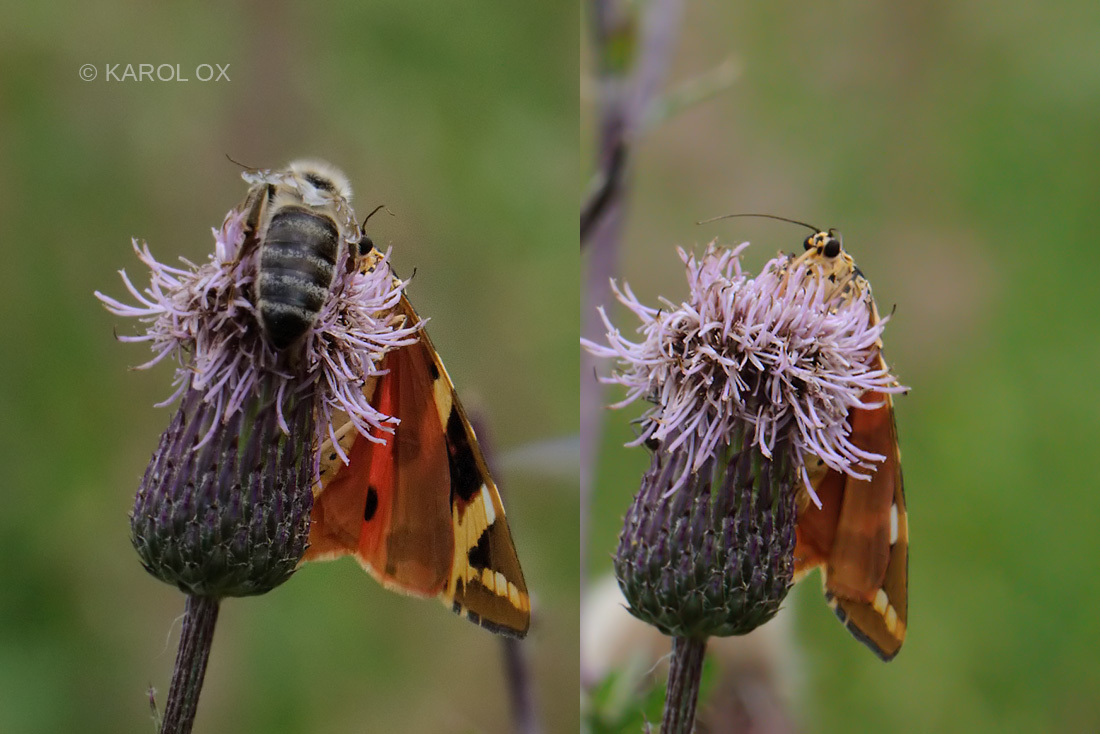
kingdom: Animalia
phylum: Arthropoda
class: Insecta
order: Lepidoptera
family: Erebidae
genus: Euplagia
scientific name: Euplagia quadripunctaria
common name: Jersey tiger
